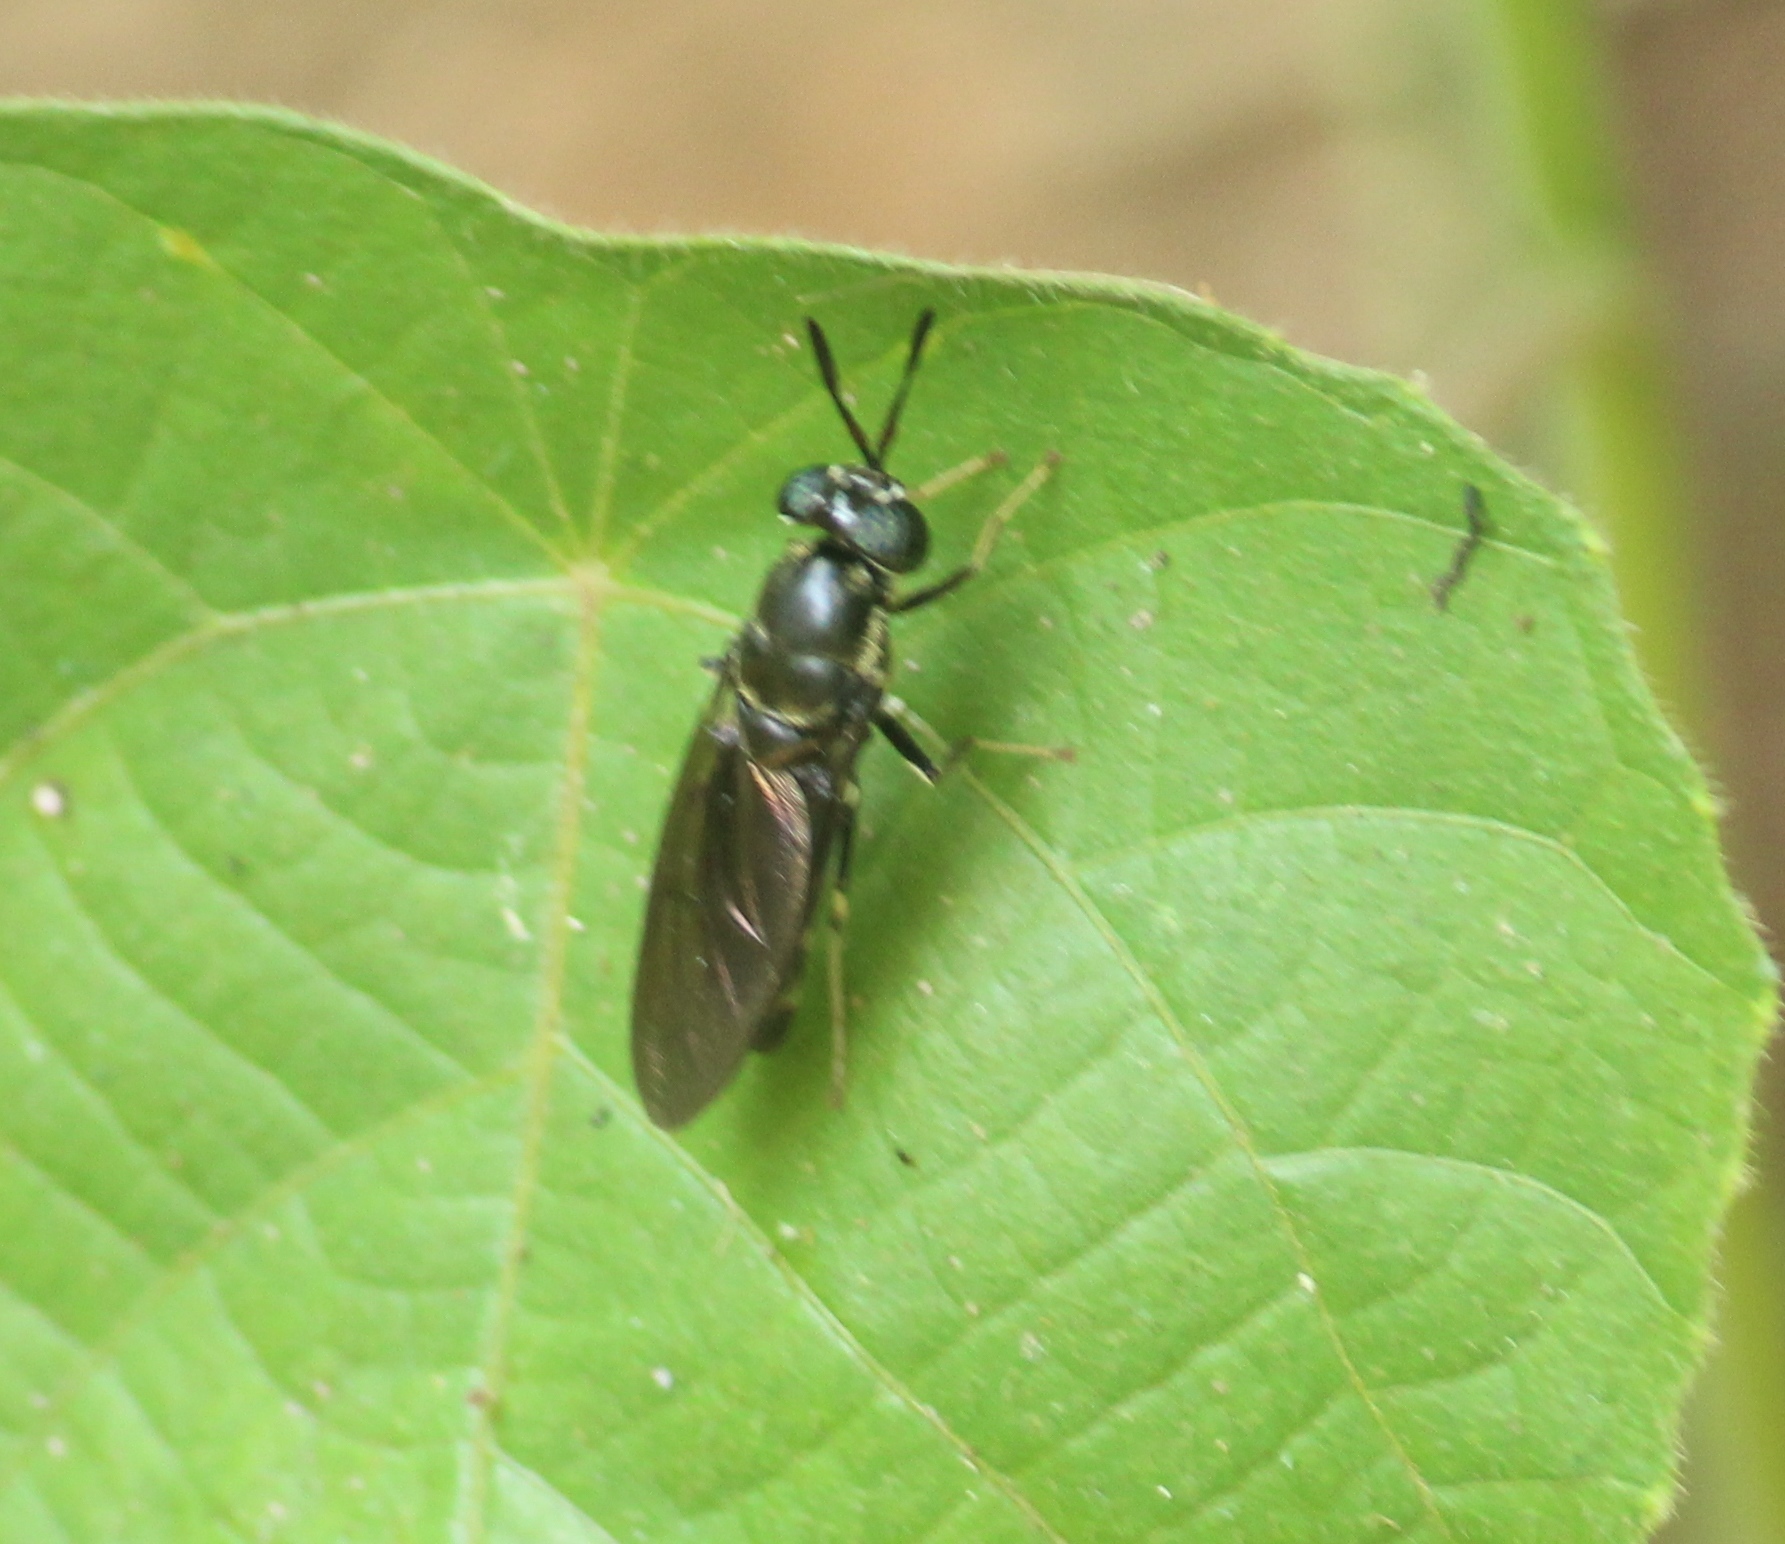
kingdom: Animalia
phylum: Arthropoda
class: Insecta
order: Diptera
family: Stratiomyidae
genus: Hermetia
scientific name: Hermetia illucens
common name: Black soldier fly
